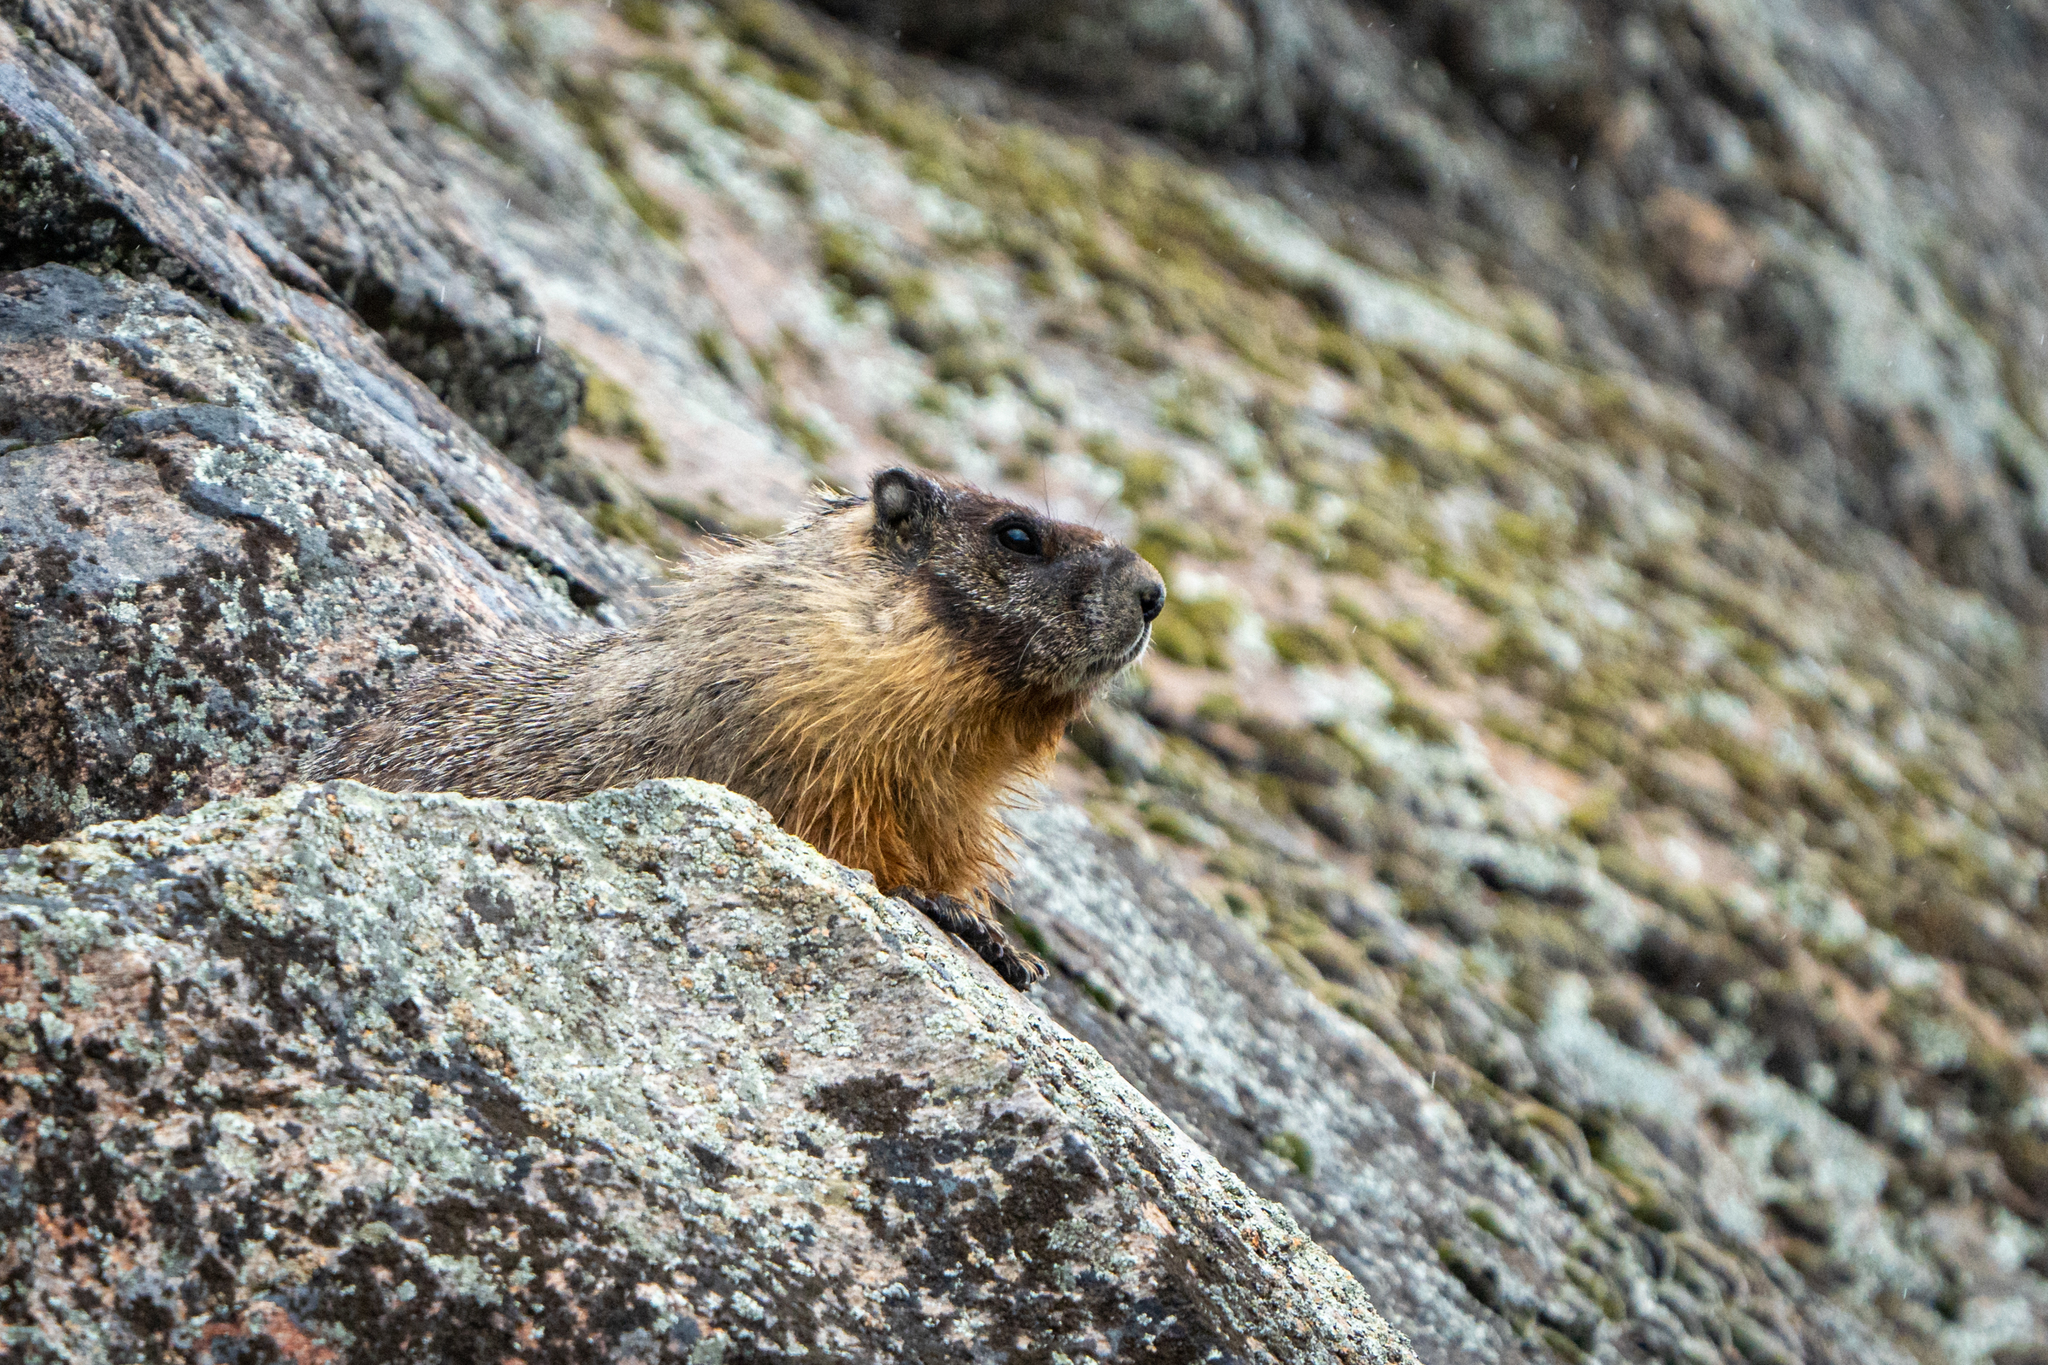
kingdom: Animalia
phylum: Chordata
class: Mammalia
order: Rodentia
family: Sciuridae
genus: Marmota
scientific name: Marmota flaviventris
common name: Yellow-bellied marmot
